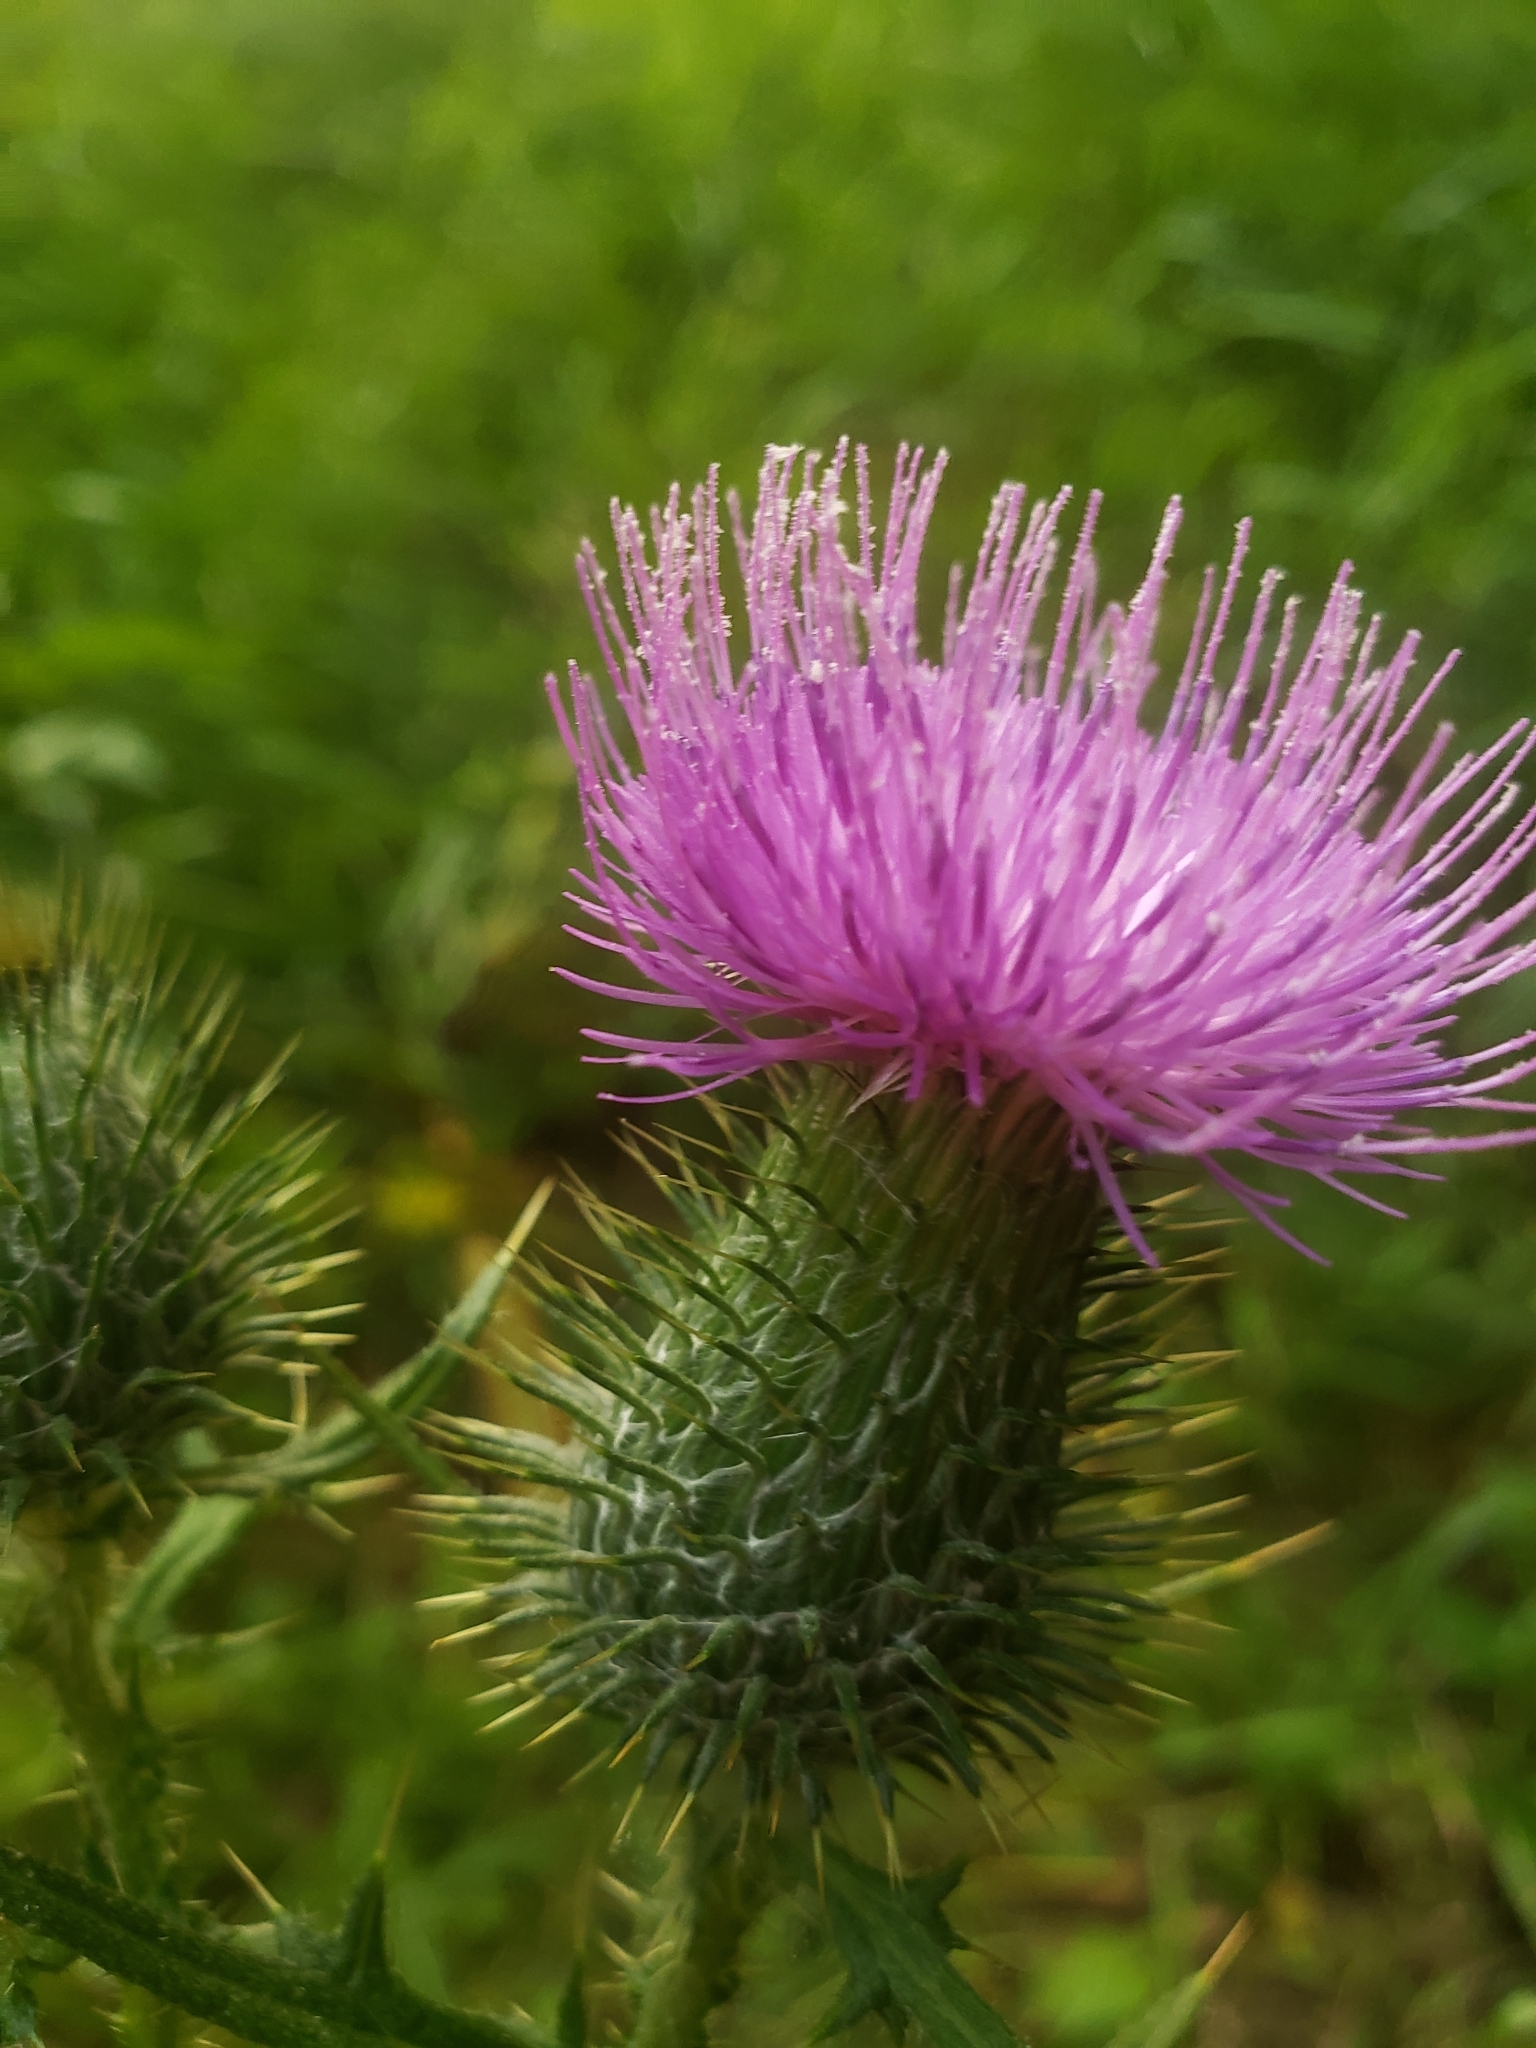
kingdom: Plantae
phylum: Tracheophyta
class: Magnoliopsida
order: Asterales
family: Asteraceae
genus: Cirsium
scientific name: Cirsium vulgare
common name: Bull thistle
